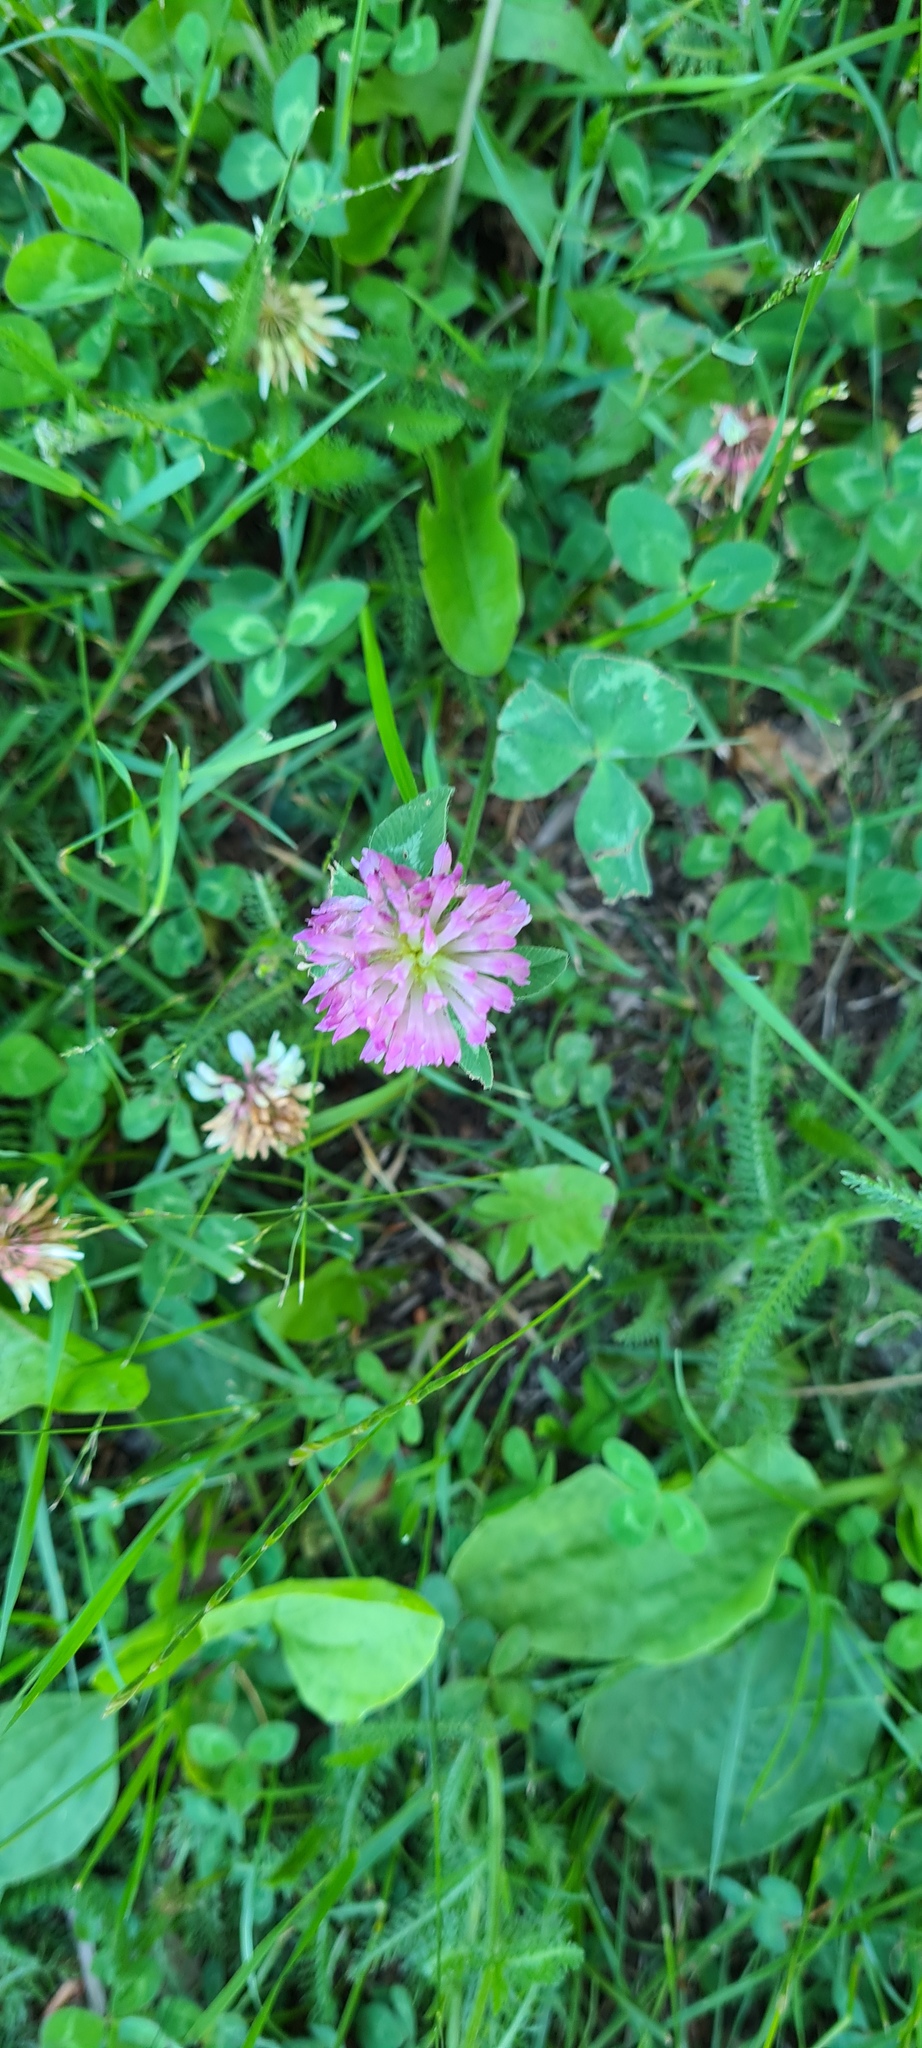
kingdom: Plantae
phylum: Tracheophyta
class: Magnoliopsida
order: Fabales
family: Fabaceae
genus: Trifolium
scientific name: Trifolium pratense
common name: Red clover
